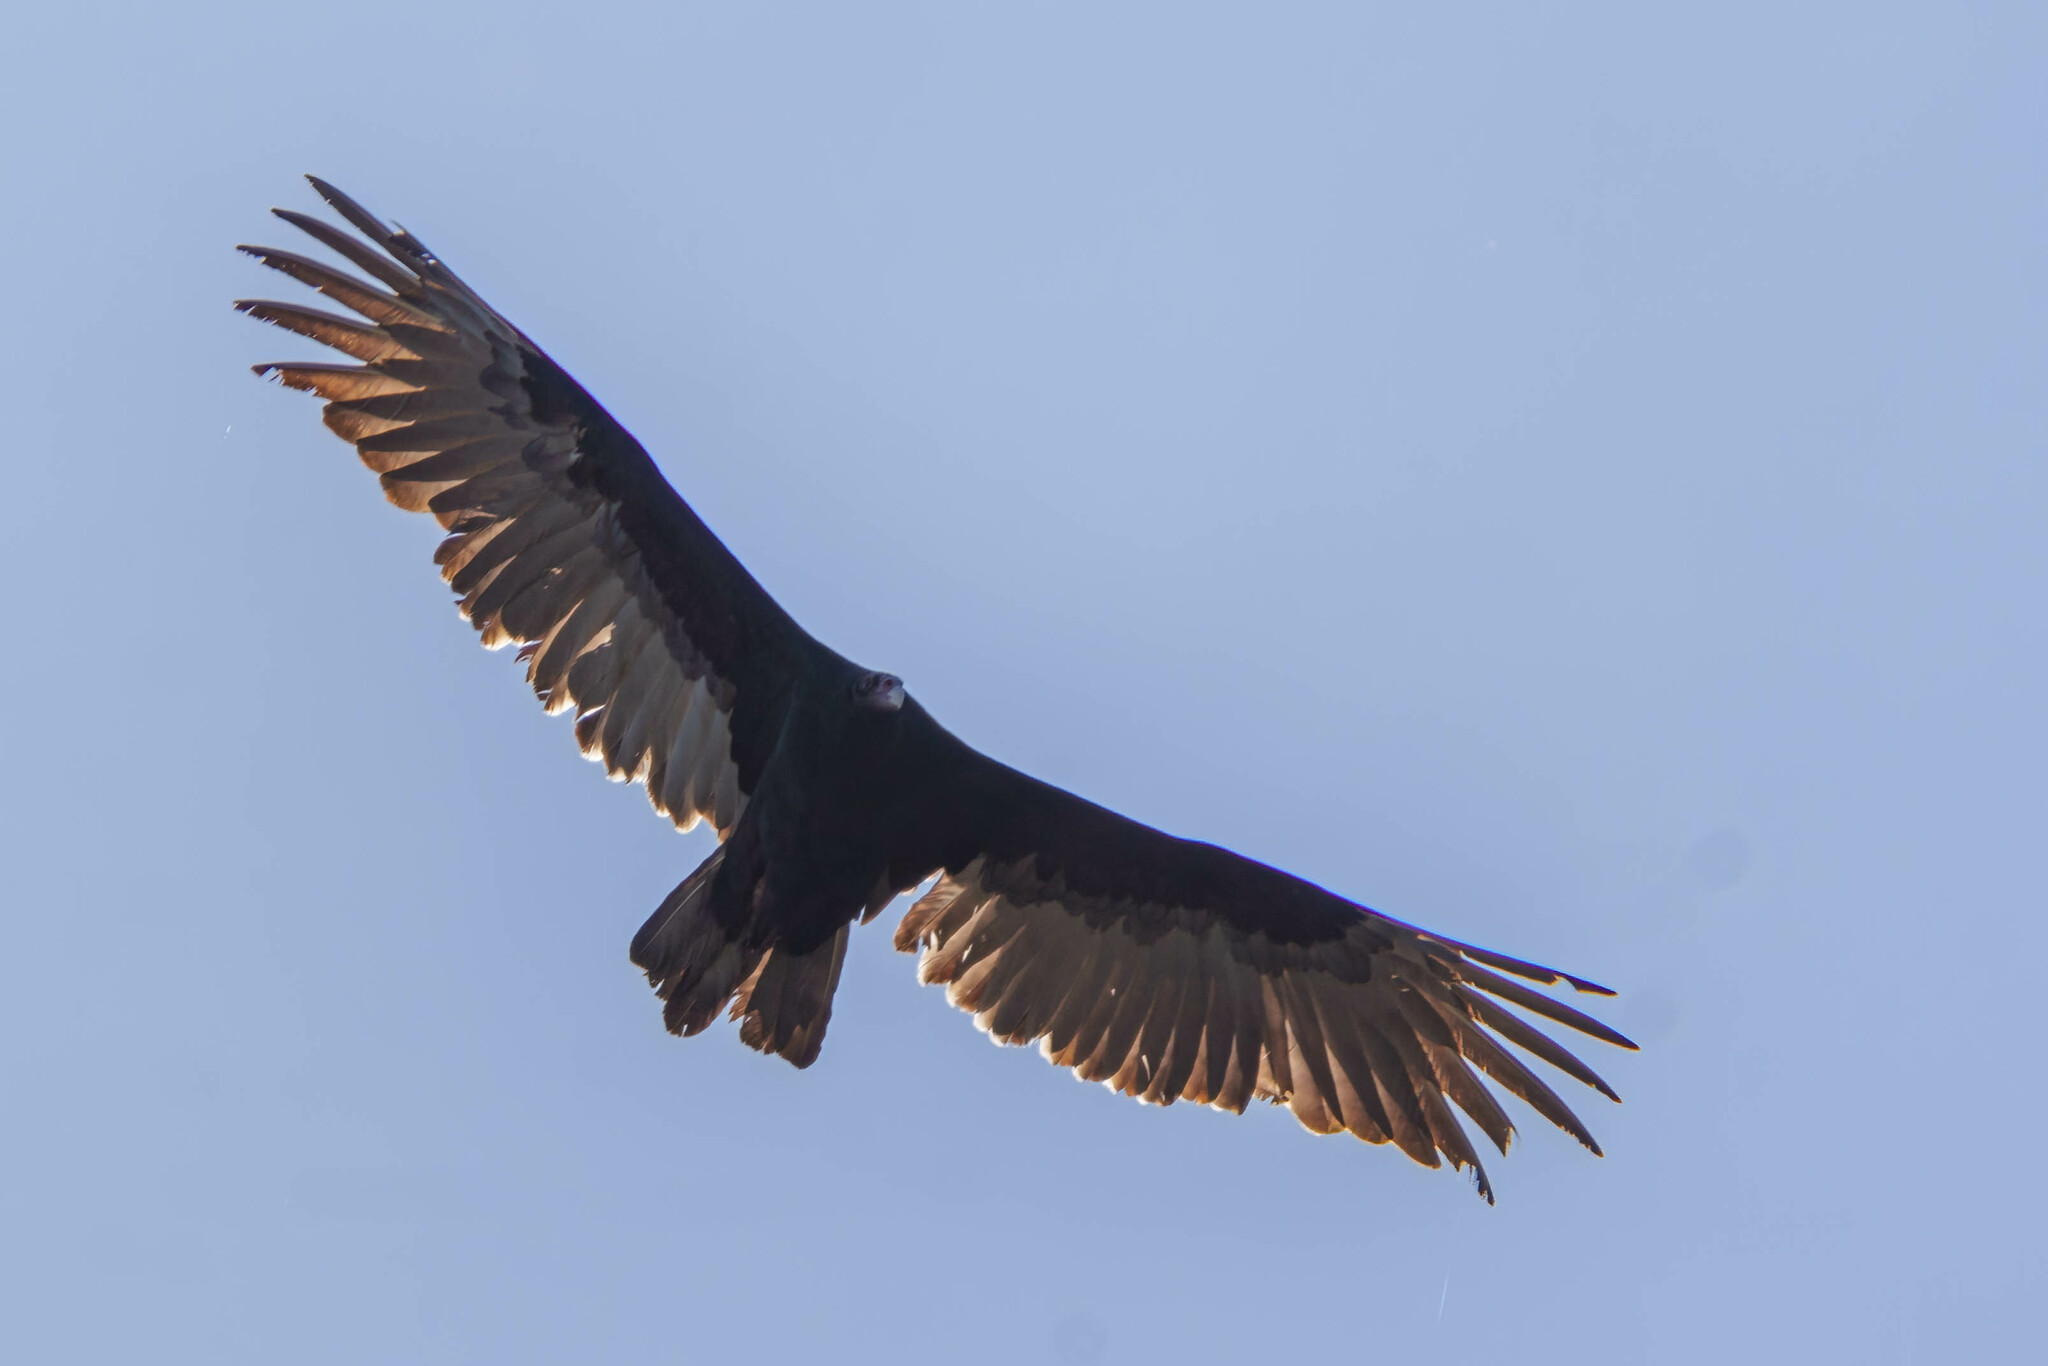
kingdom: Animalia
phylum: Chordata
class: Aves
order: Accipitriformes
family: Cathartidae
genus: Cathartes
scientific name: Cathartes aura
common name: Turkey vulture
